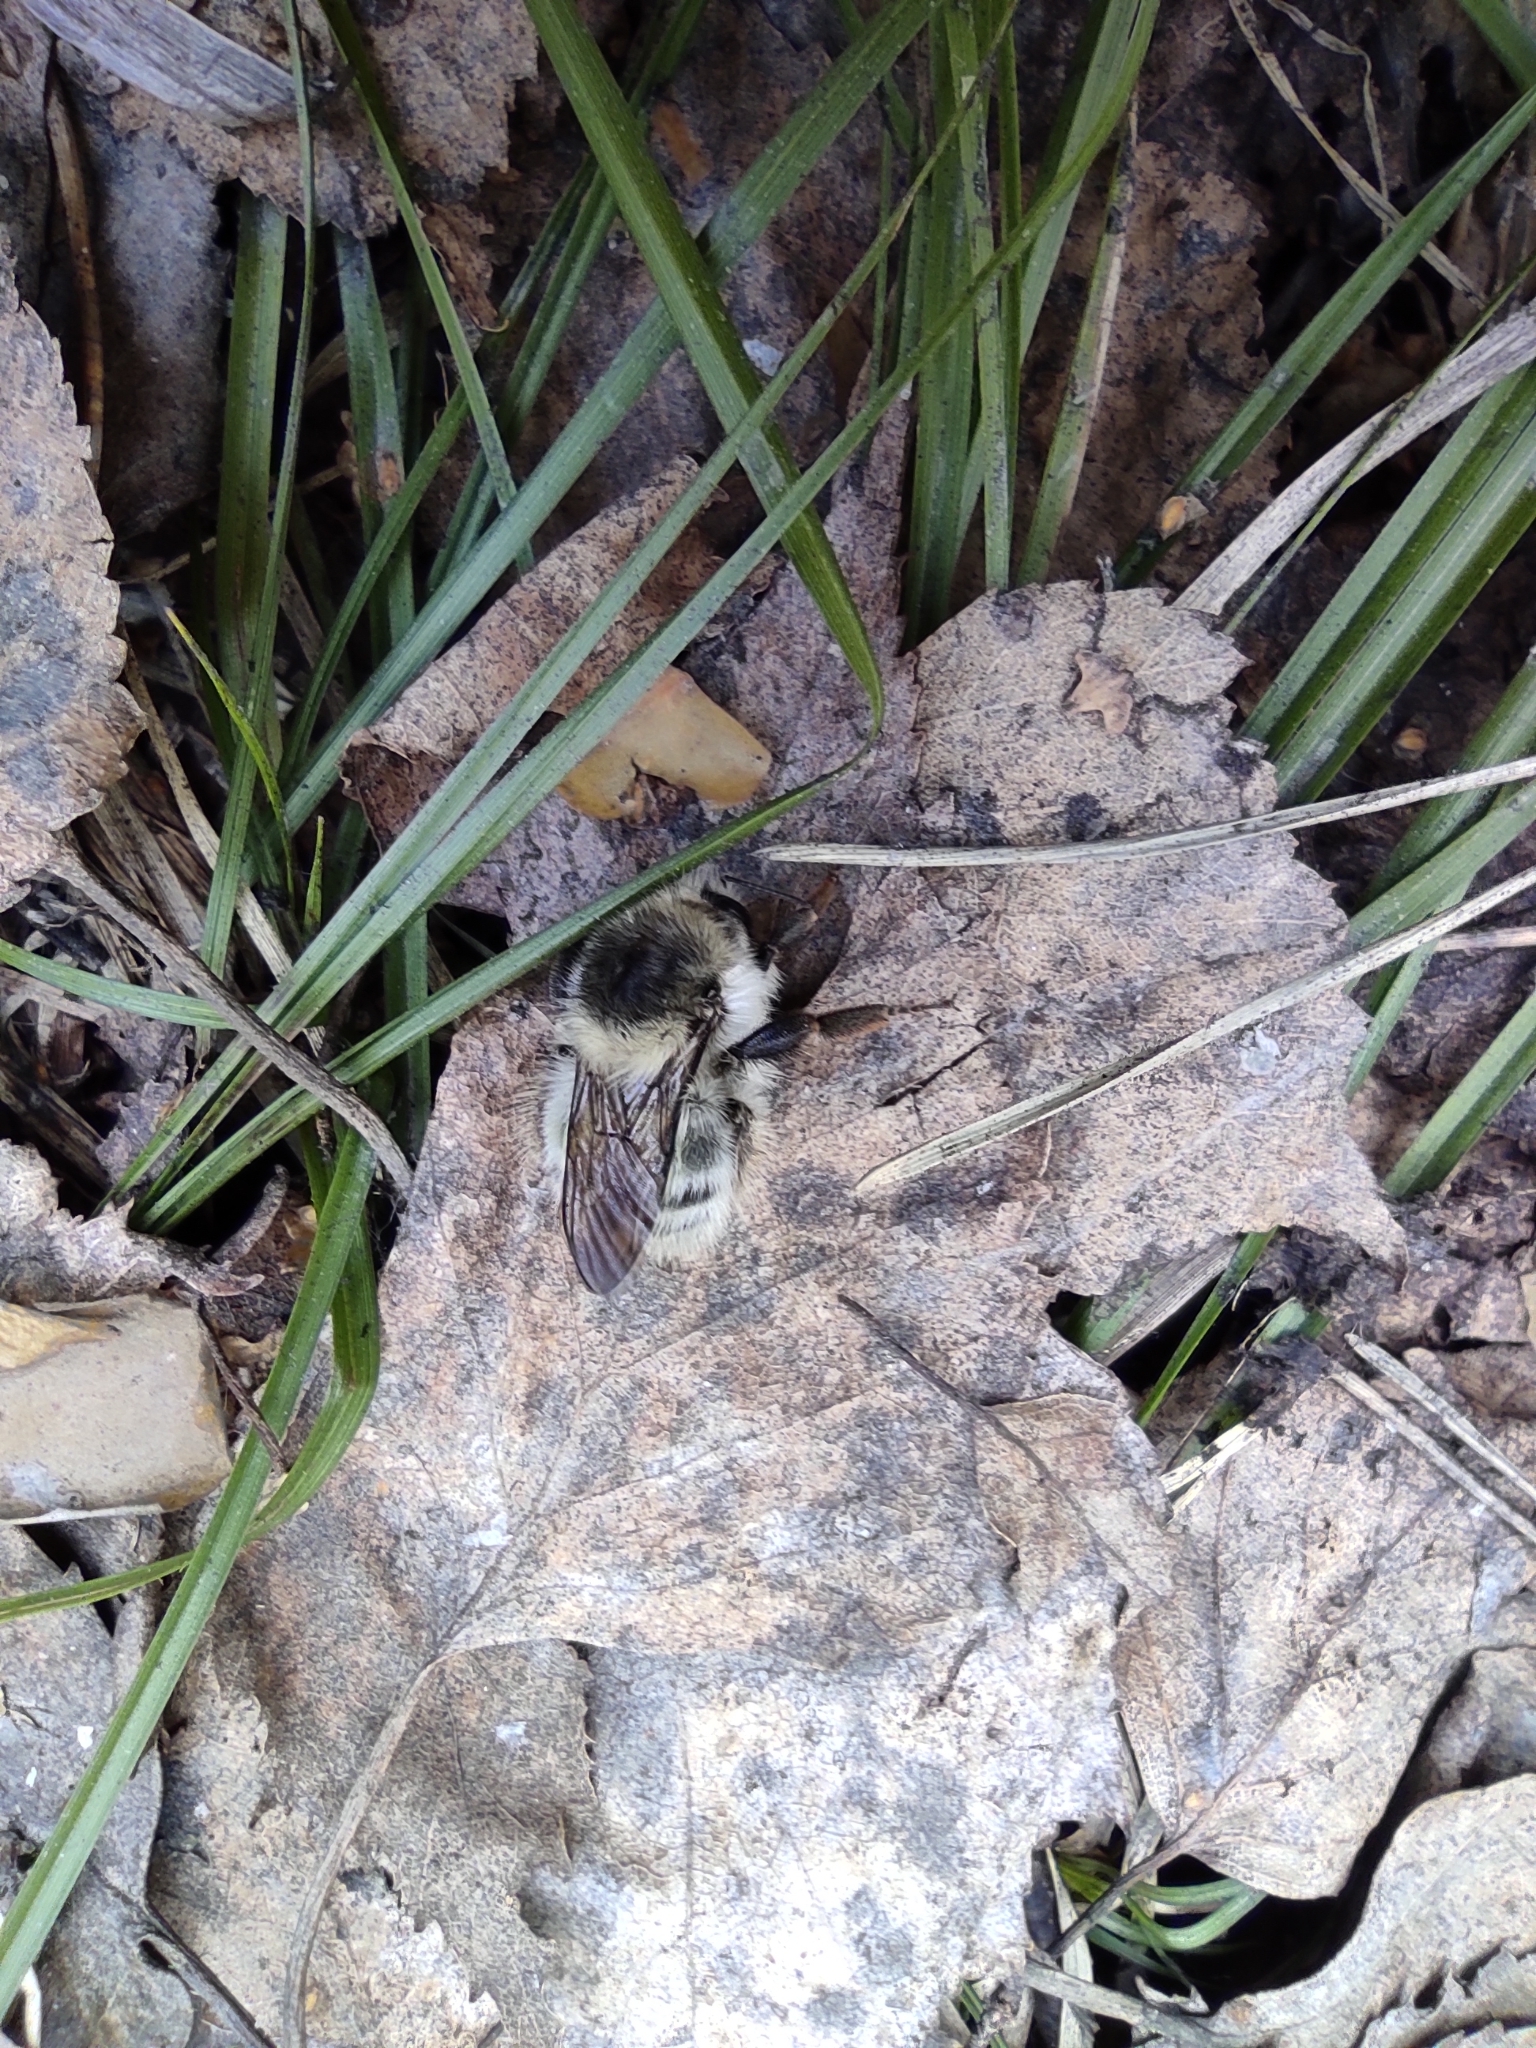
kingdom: Animalia
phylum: Arthropoda
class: Insecta
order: Hymenoptera
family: Apidae
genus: Bombus
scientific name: Bombus veteranus
